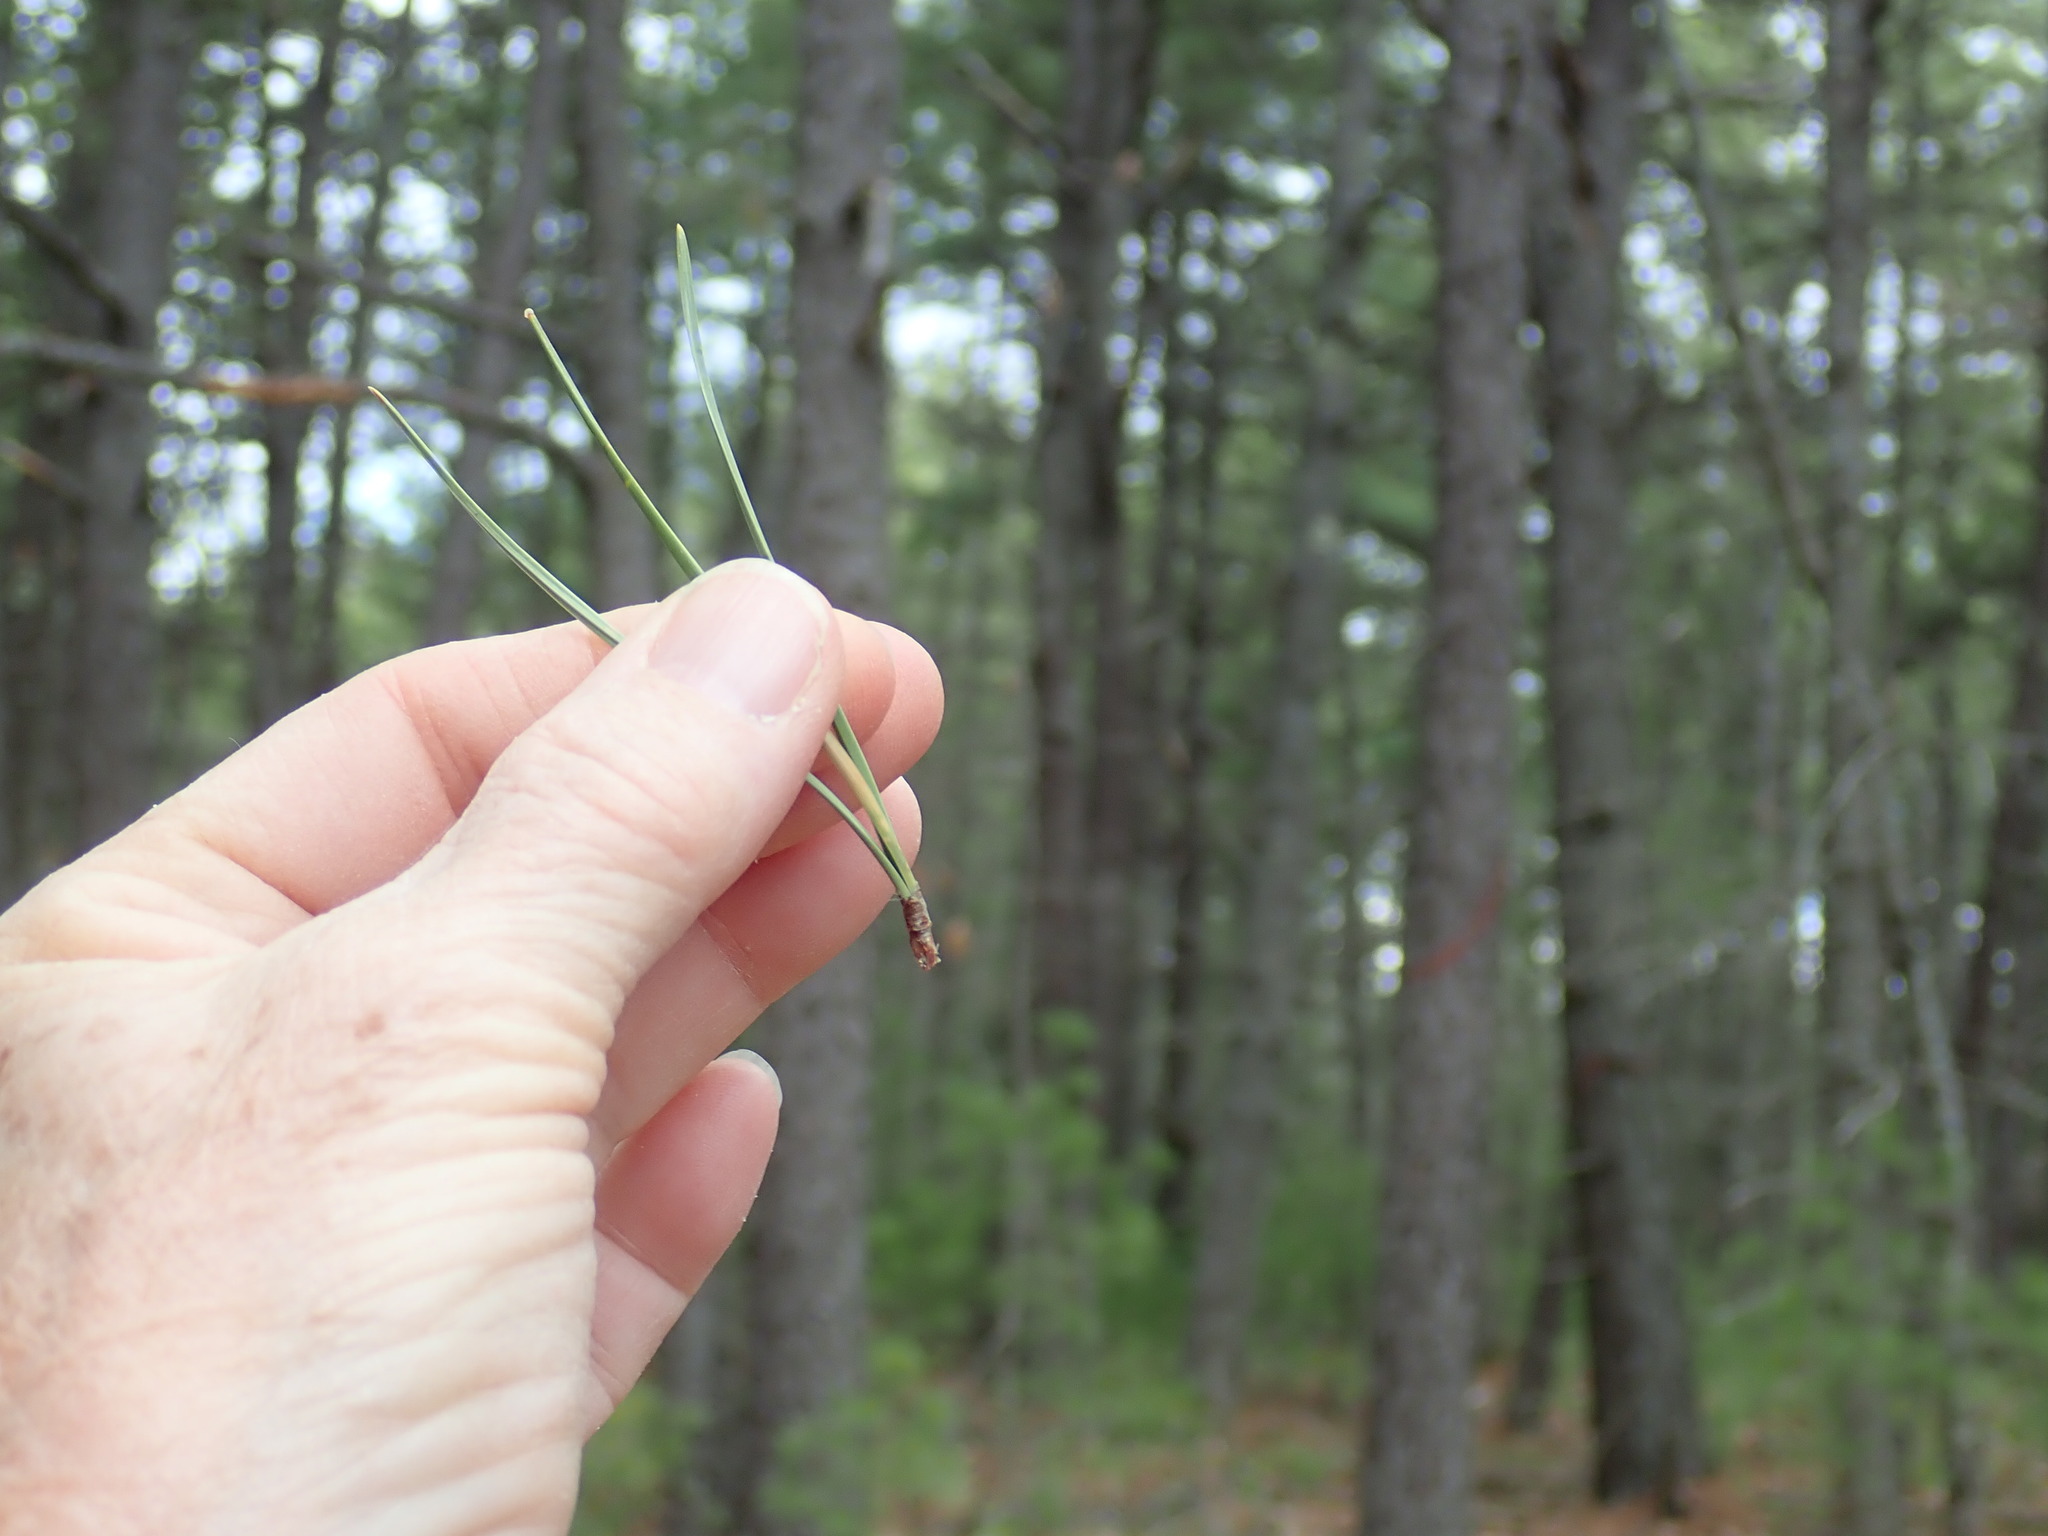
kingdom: Plantae
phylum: Tracheophyta
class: Pinopsida
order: Pinales
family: Pinaceae
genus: Pinus
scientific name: Pinus rigida
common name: Pitch pine
